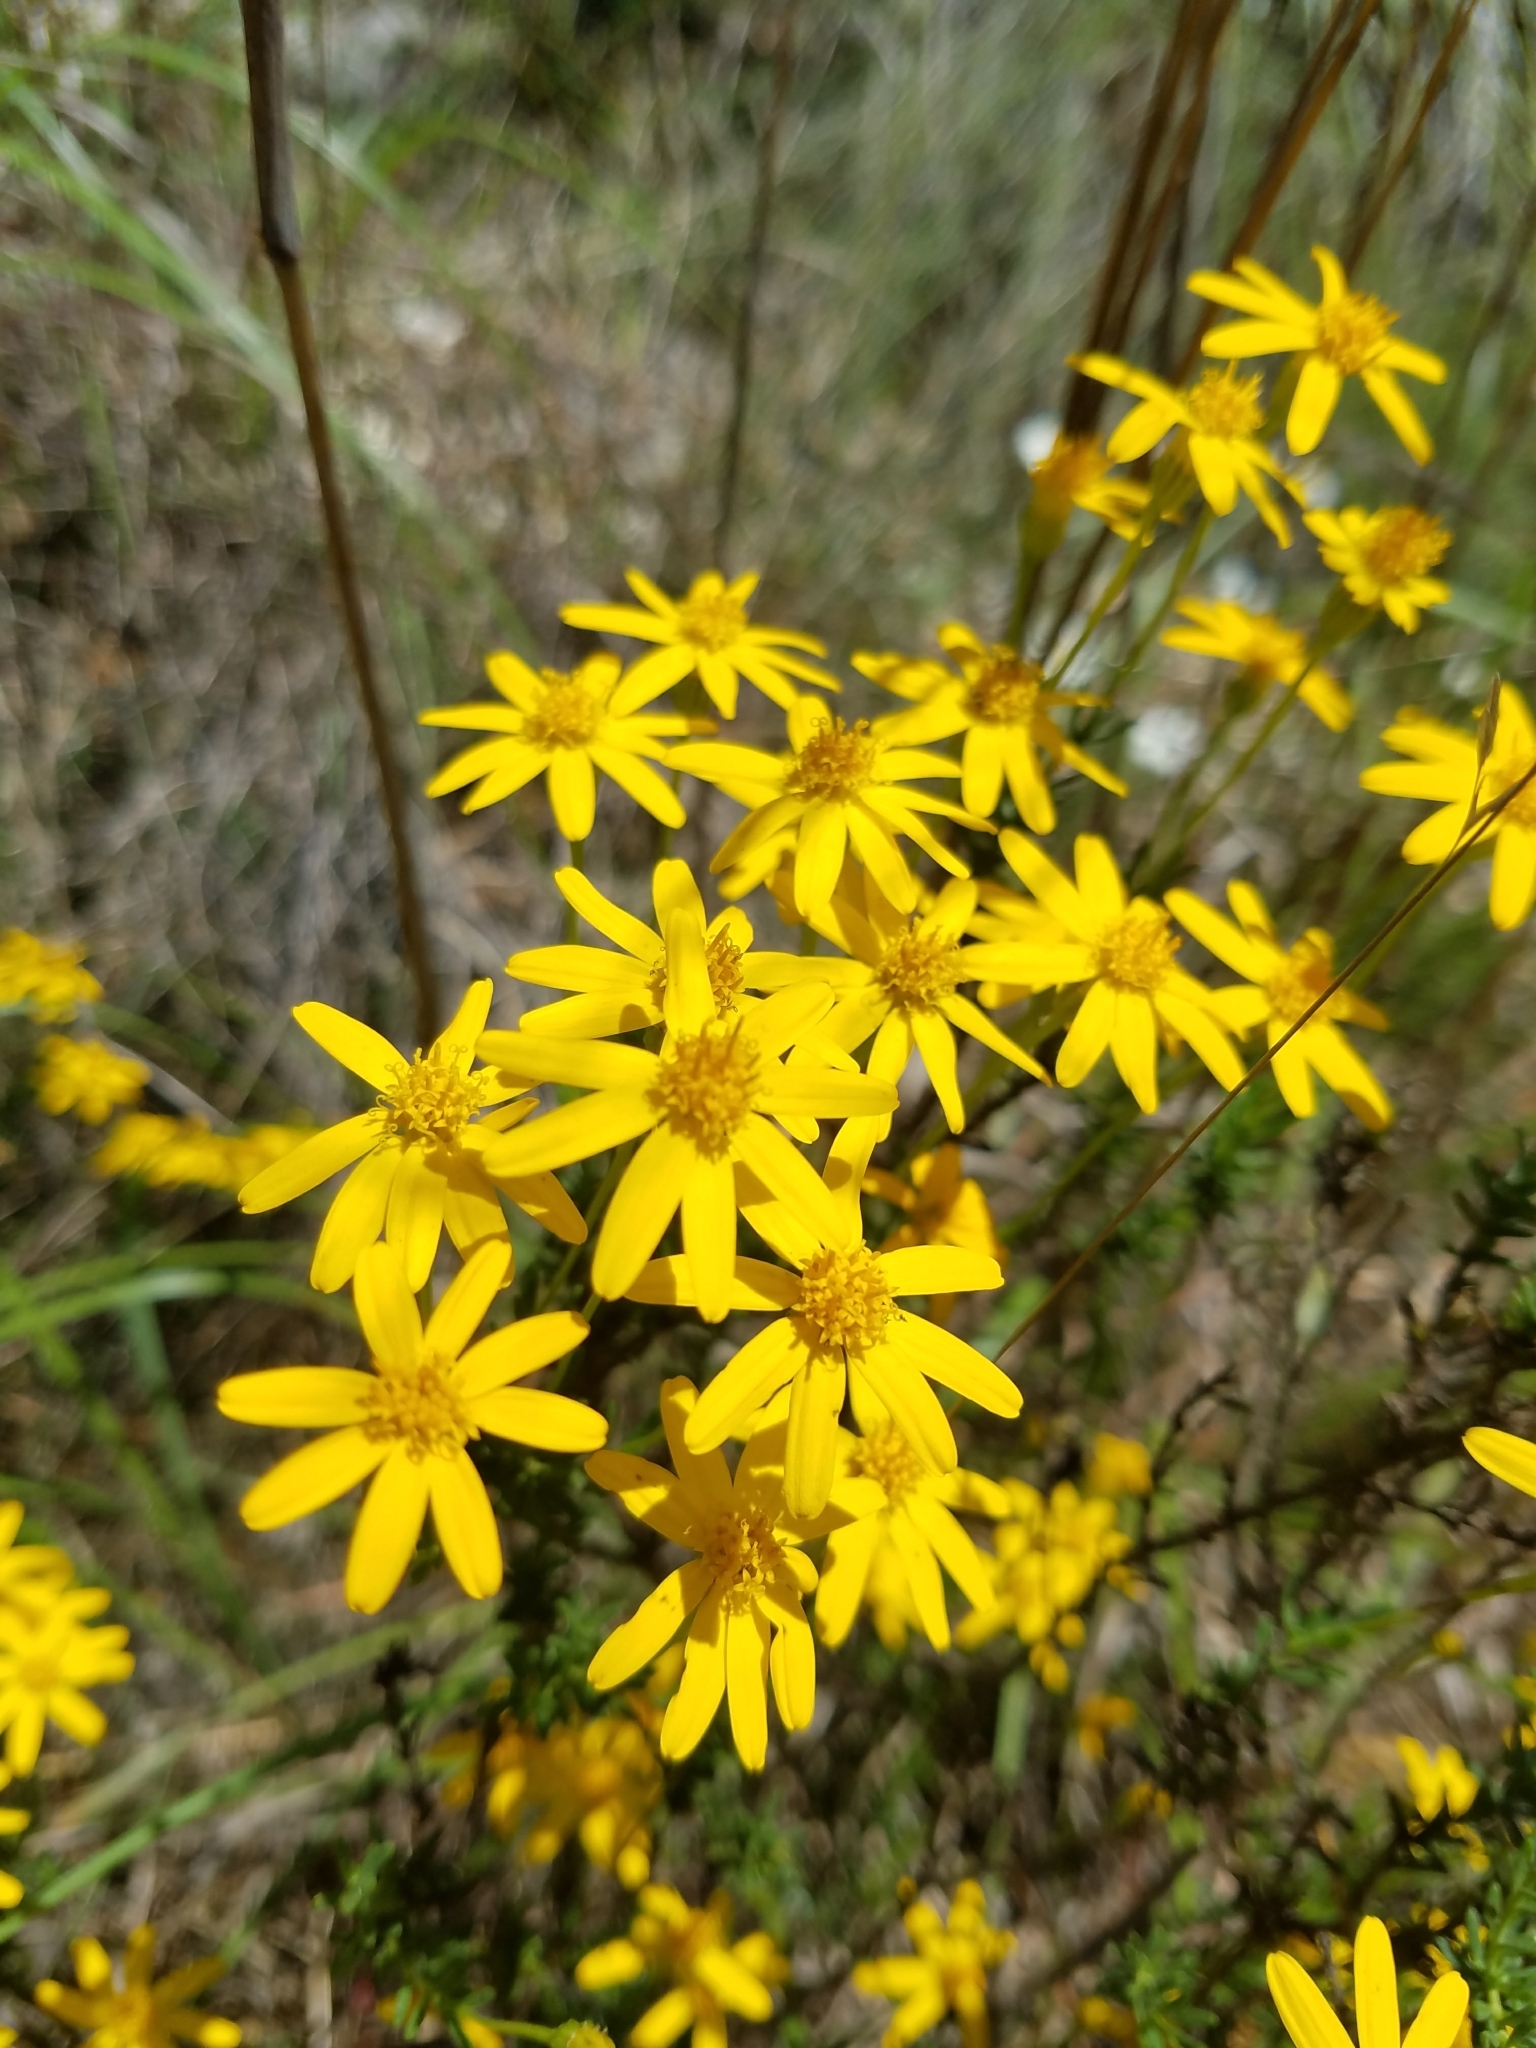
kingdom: Plantae
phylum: Tracheophyta
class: Magnoliopsida
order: Asterales
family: Asteraceae
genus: Chrysactinia
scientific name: Chrysactinia mexicana
